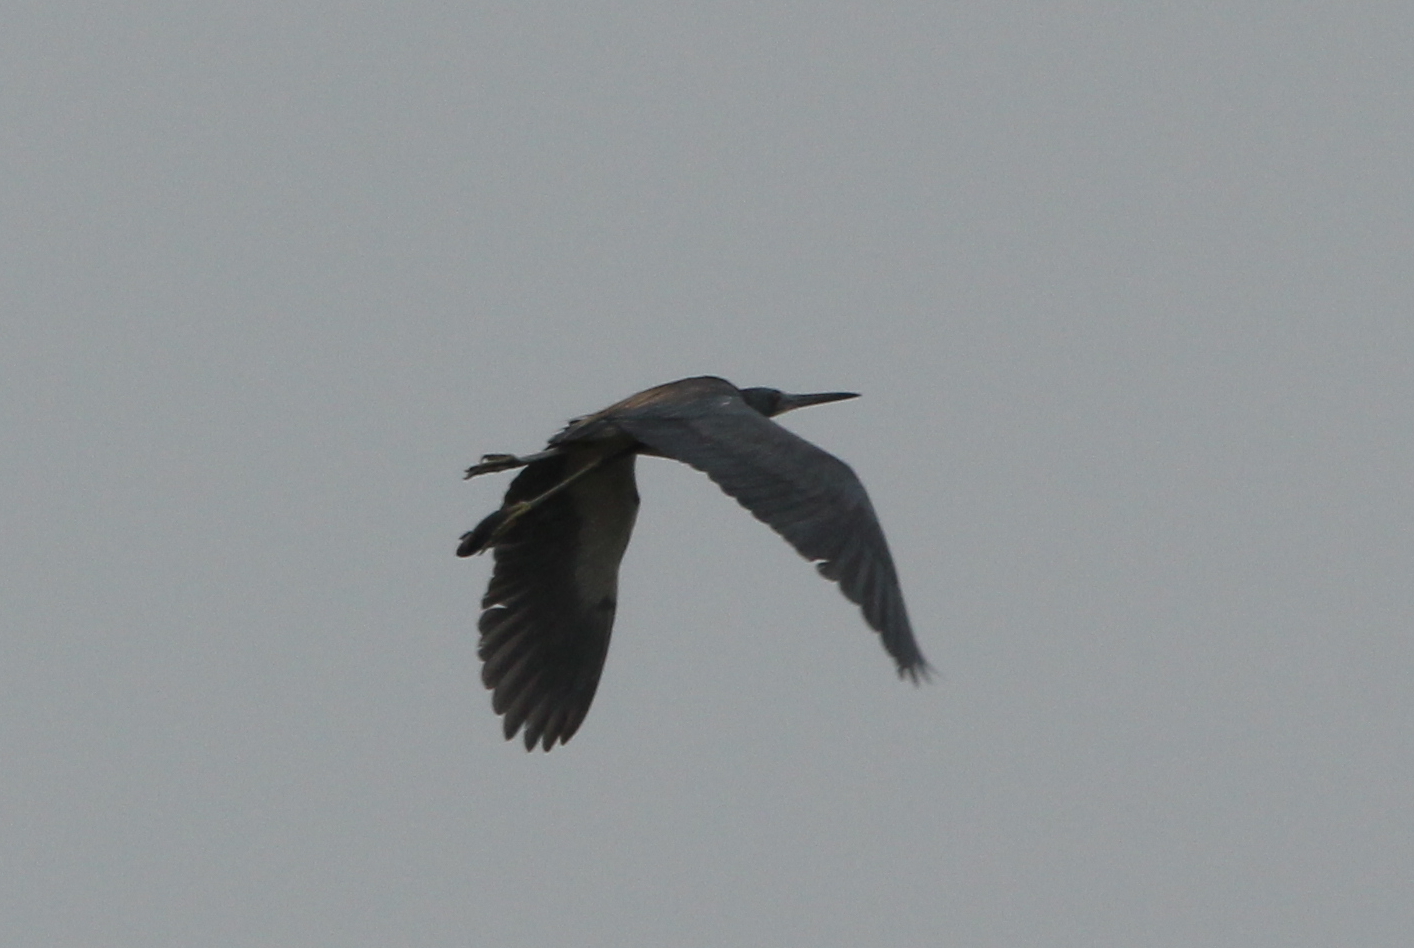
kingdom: Animalia
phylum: Chordata
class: Aves
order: Pelecaniformes
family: Ardeidae
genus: Egretta
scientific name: Egretta tricolor
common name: Tricolored heron
